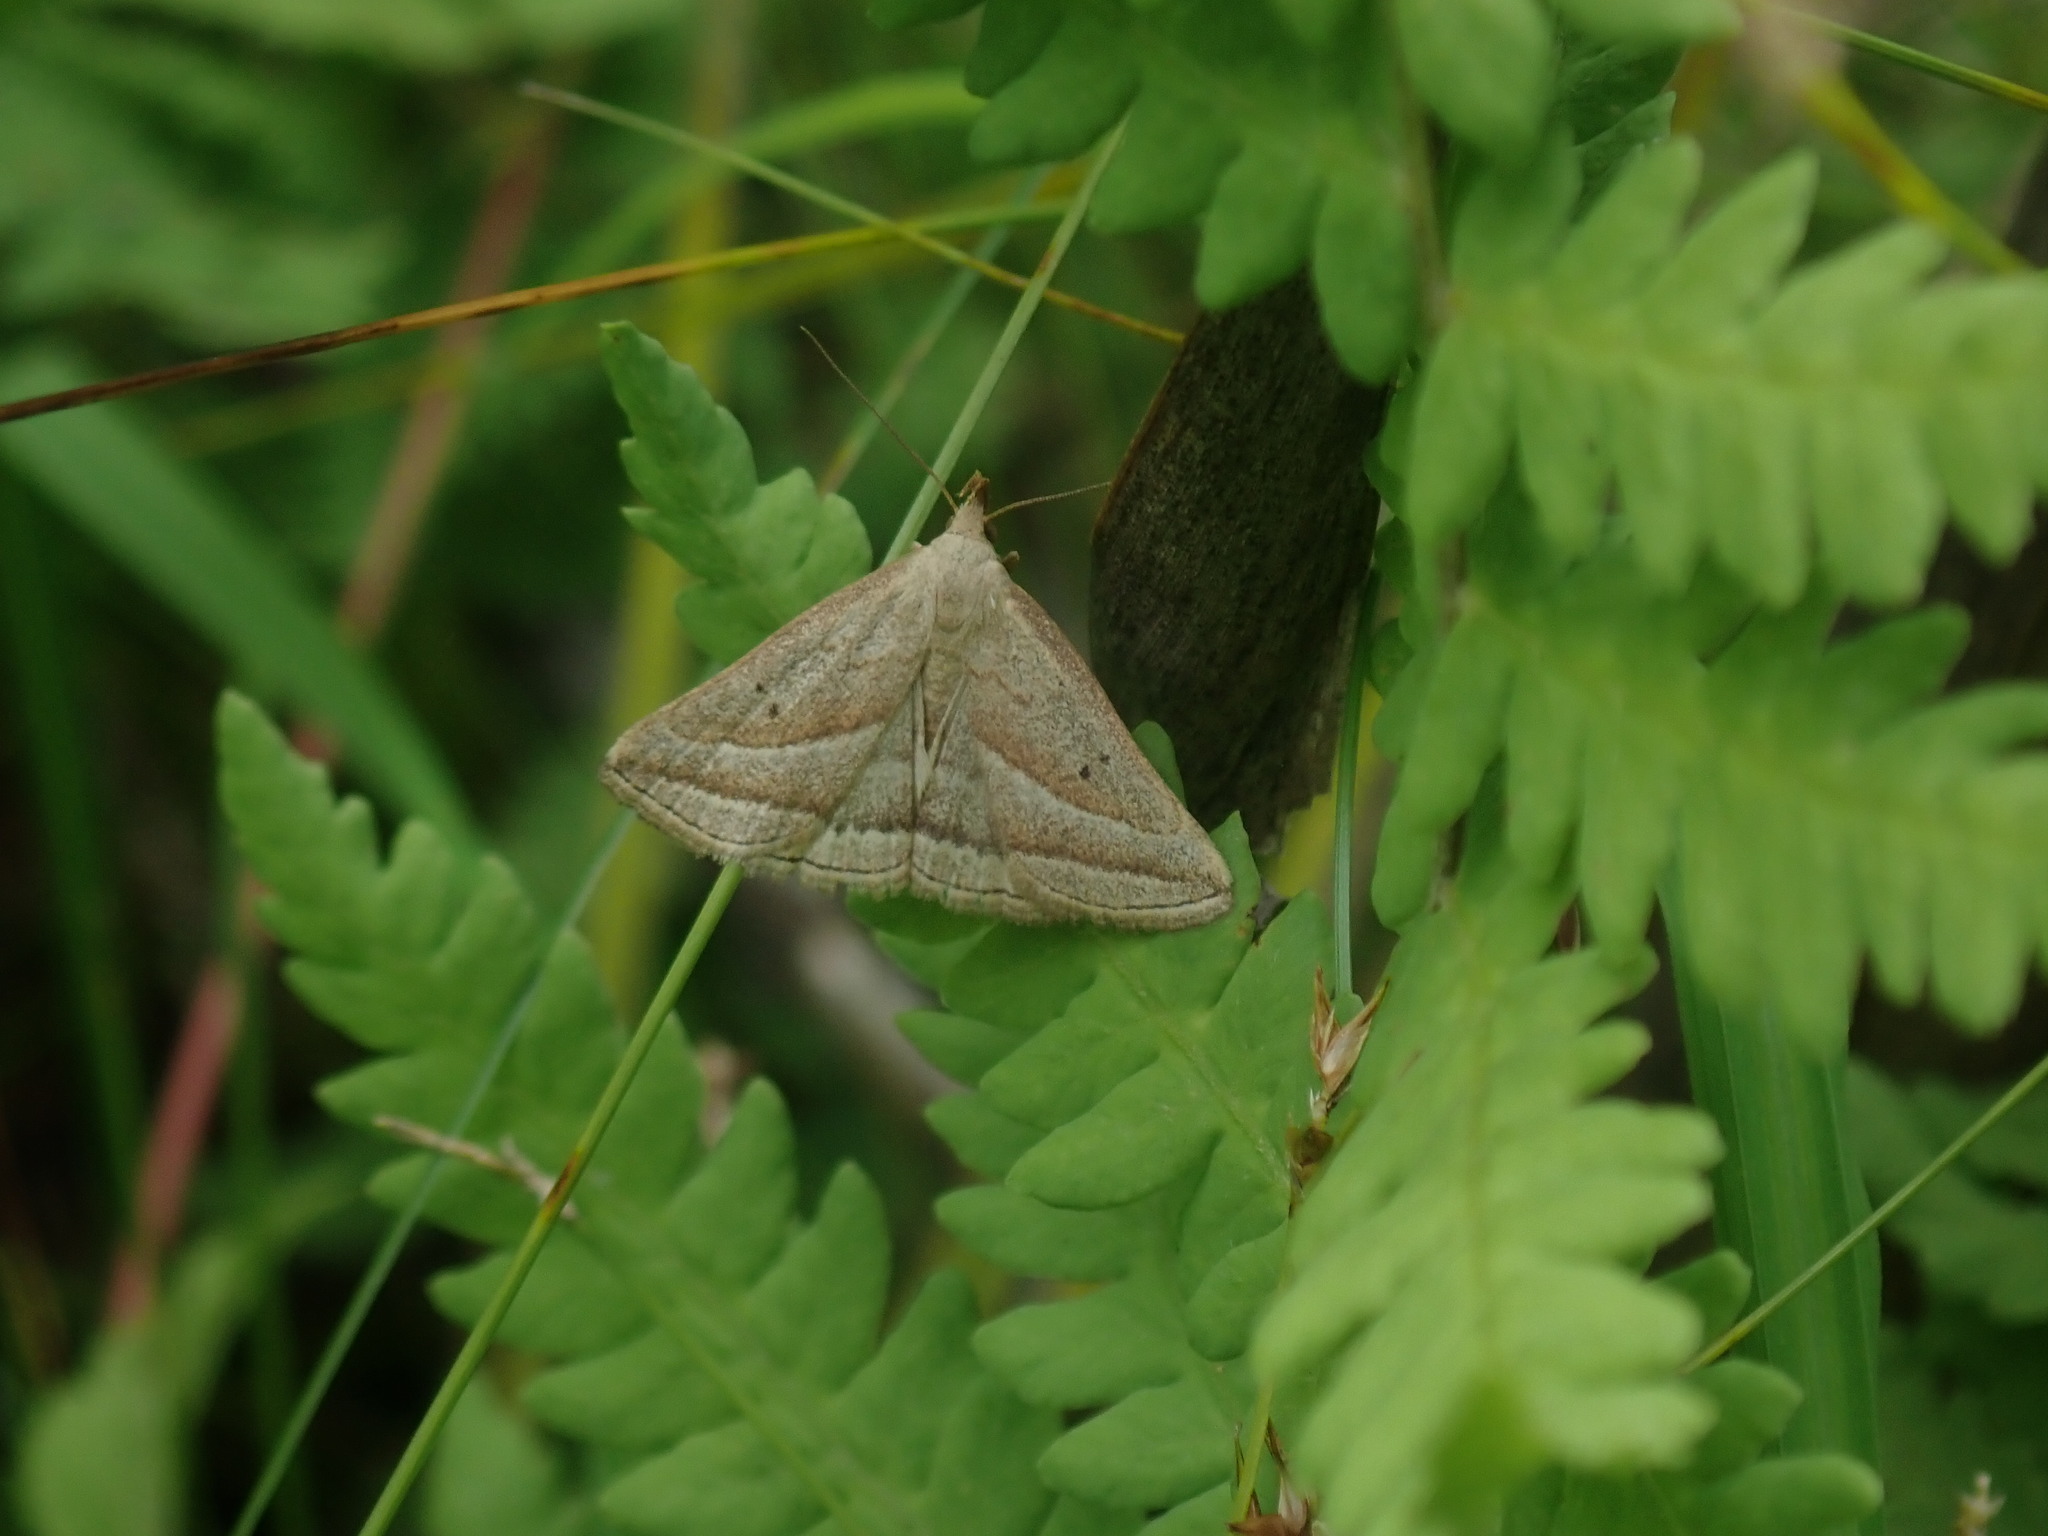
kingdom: Animalia
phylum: Arthropoda
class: Insecta
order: Lepidoptera
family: Erebidae
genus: Macrochilo
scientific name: Macrochilo absorptalis
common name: Slant-lined owlet
